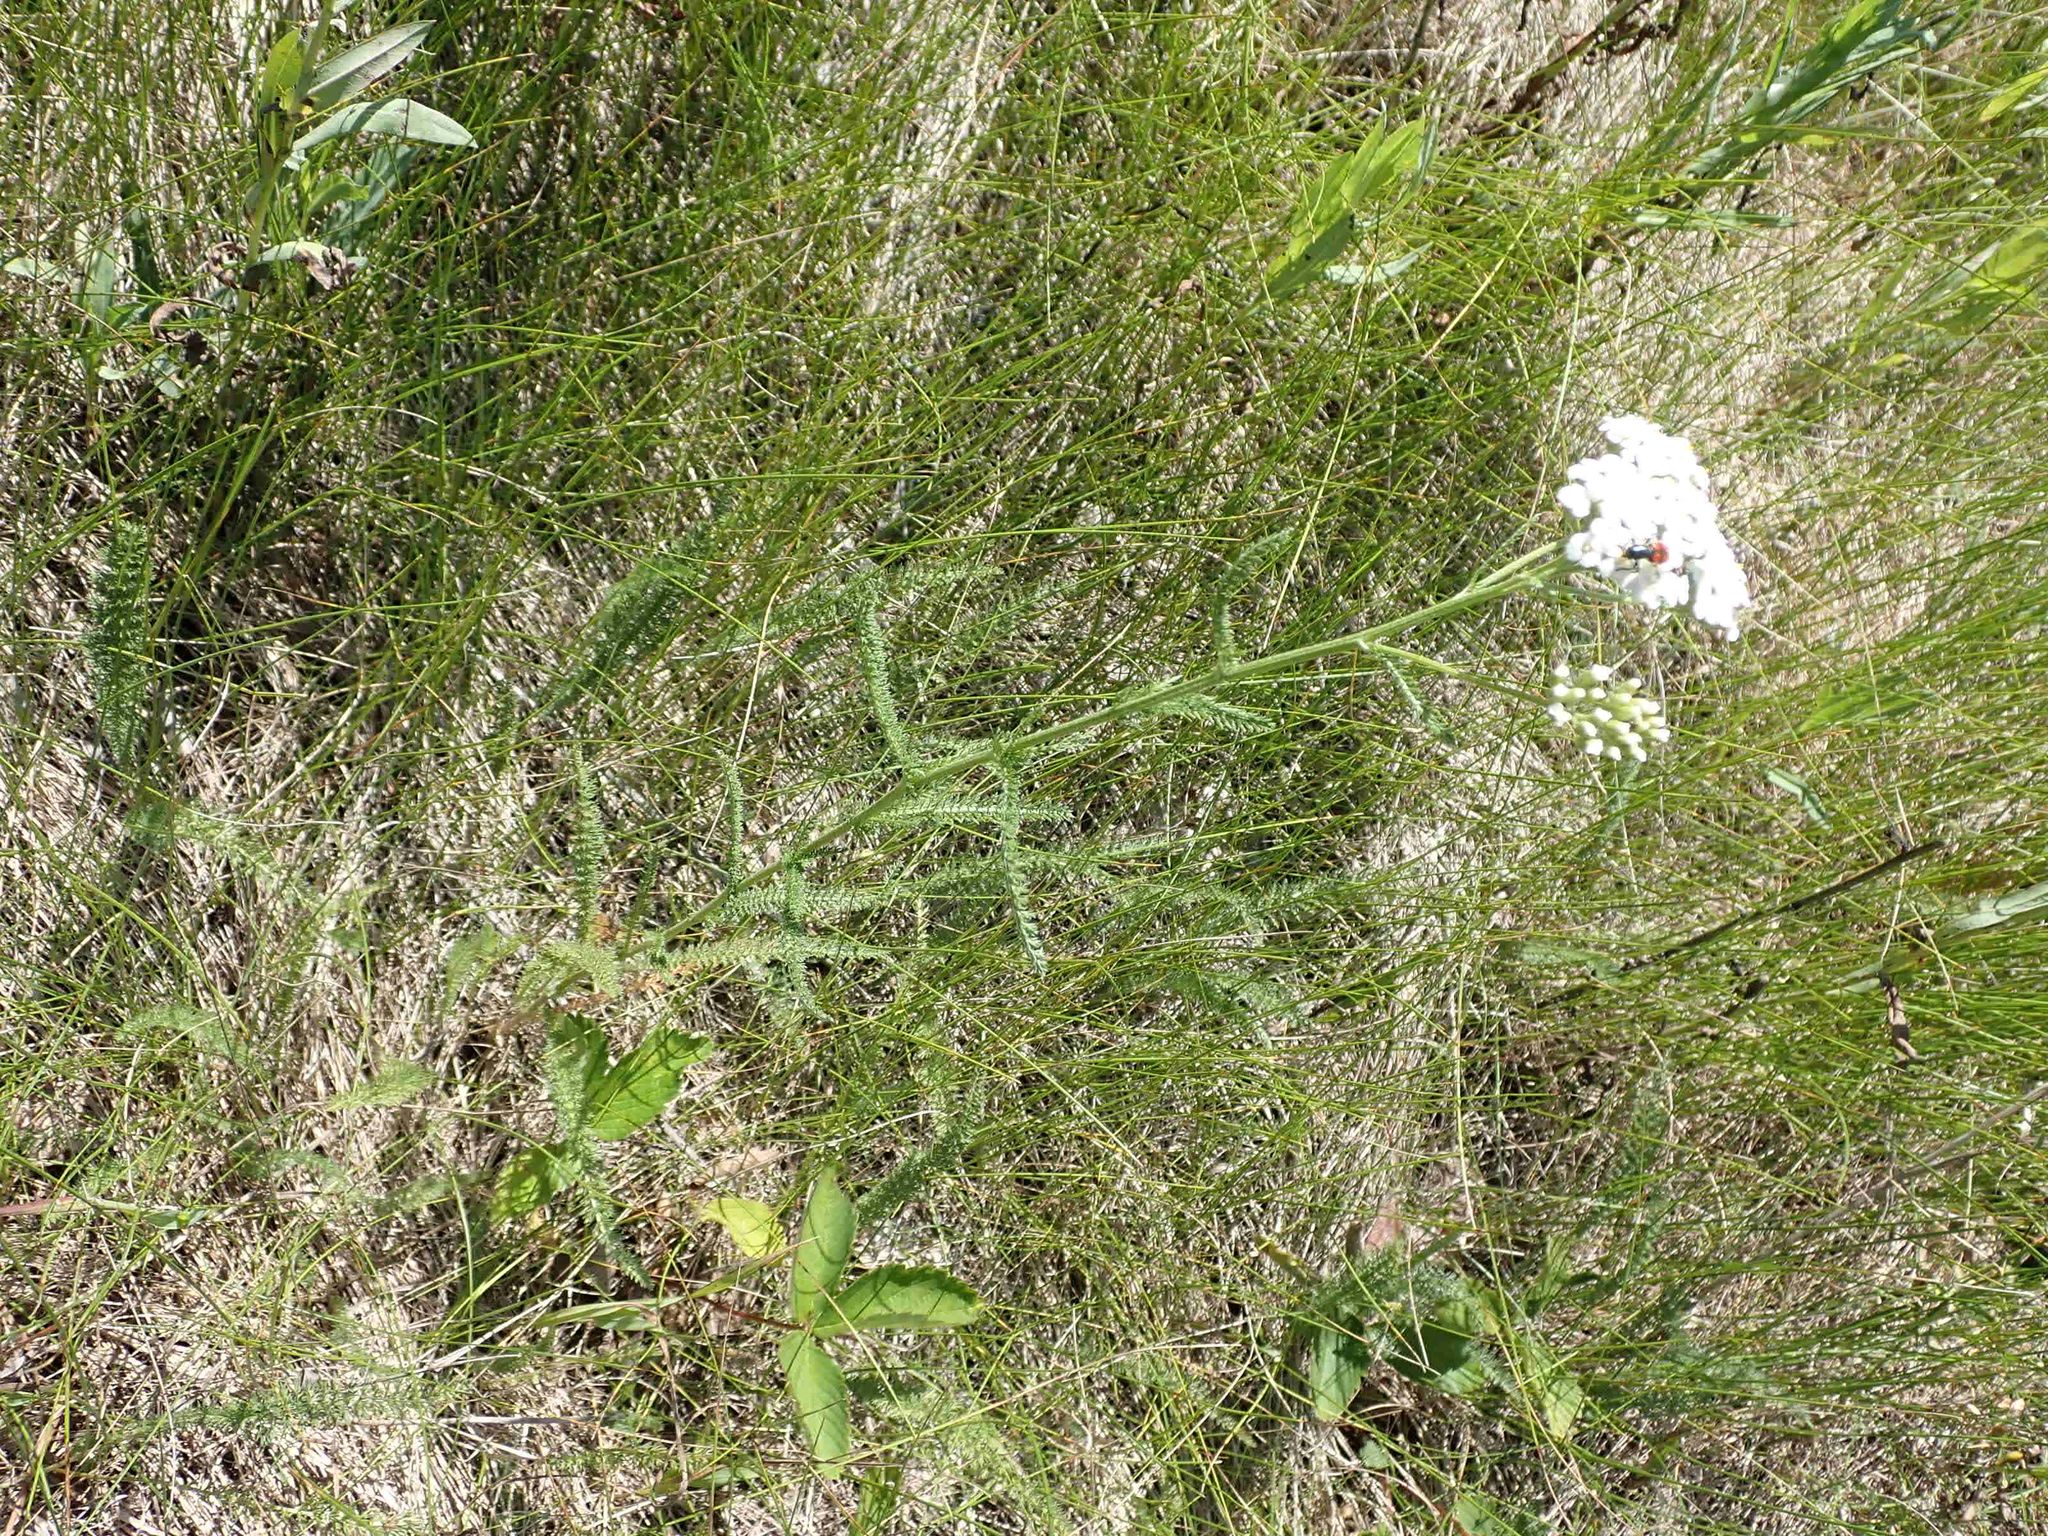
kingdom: Plantae
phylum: Tracheophyta
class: Magnoliopsida
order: Asterales
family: Asteraceae
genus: Achillea
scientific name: Achillea millefolium
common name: Yarrow
